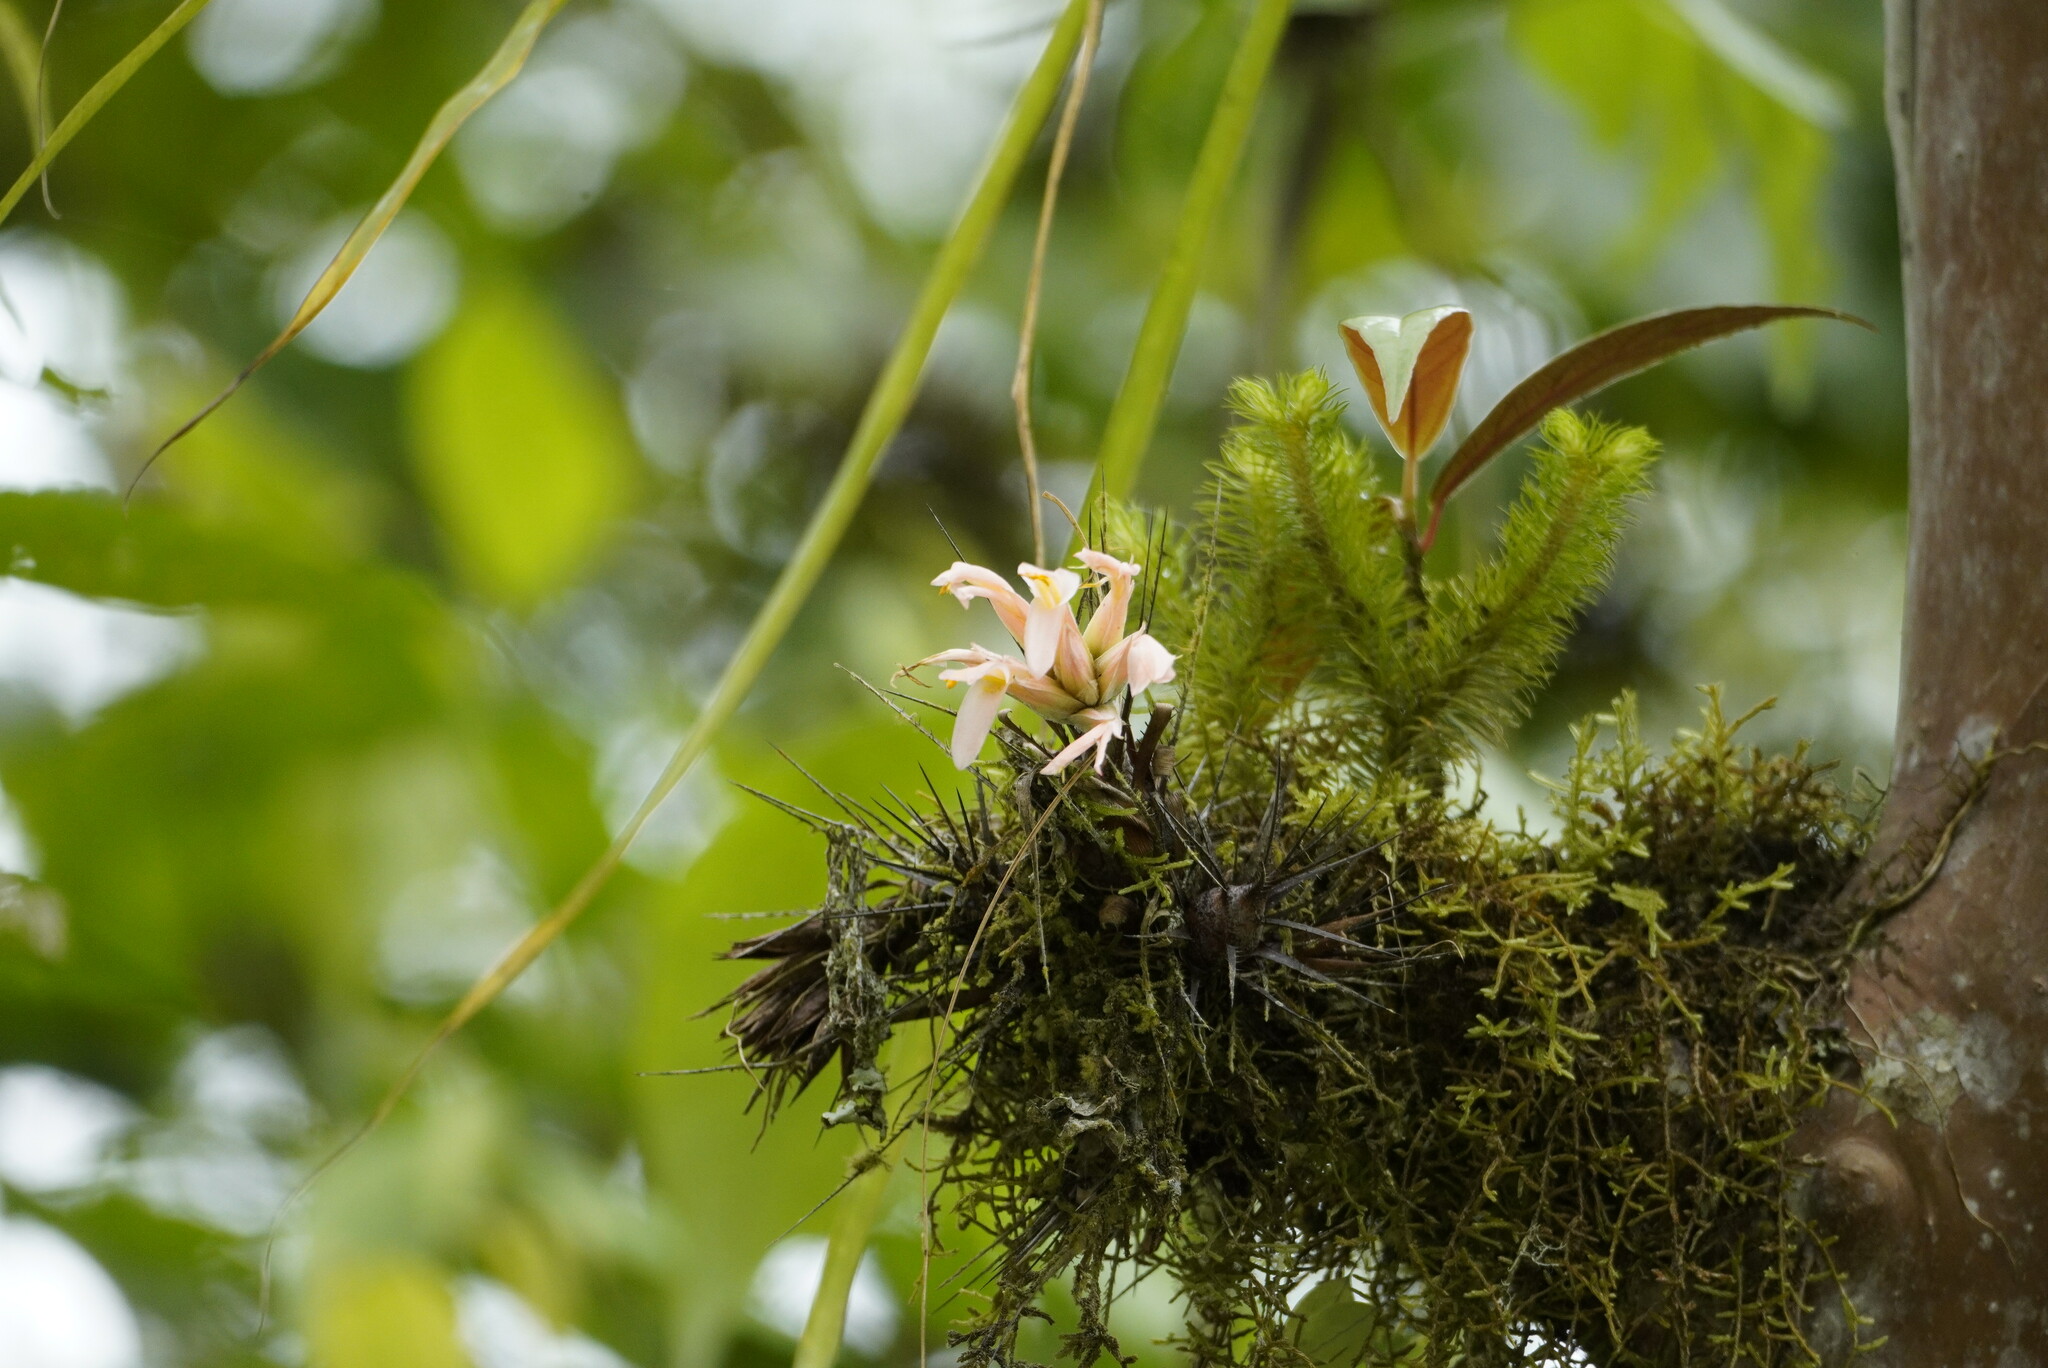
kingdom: Plantae
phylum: Tracheophyta
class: Liliopsida
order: Poales
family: Bromeliaceae
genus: Pitcairnia
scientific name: Pitcairnia heterophylla
